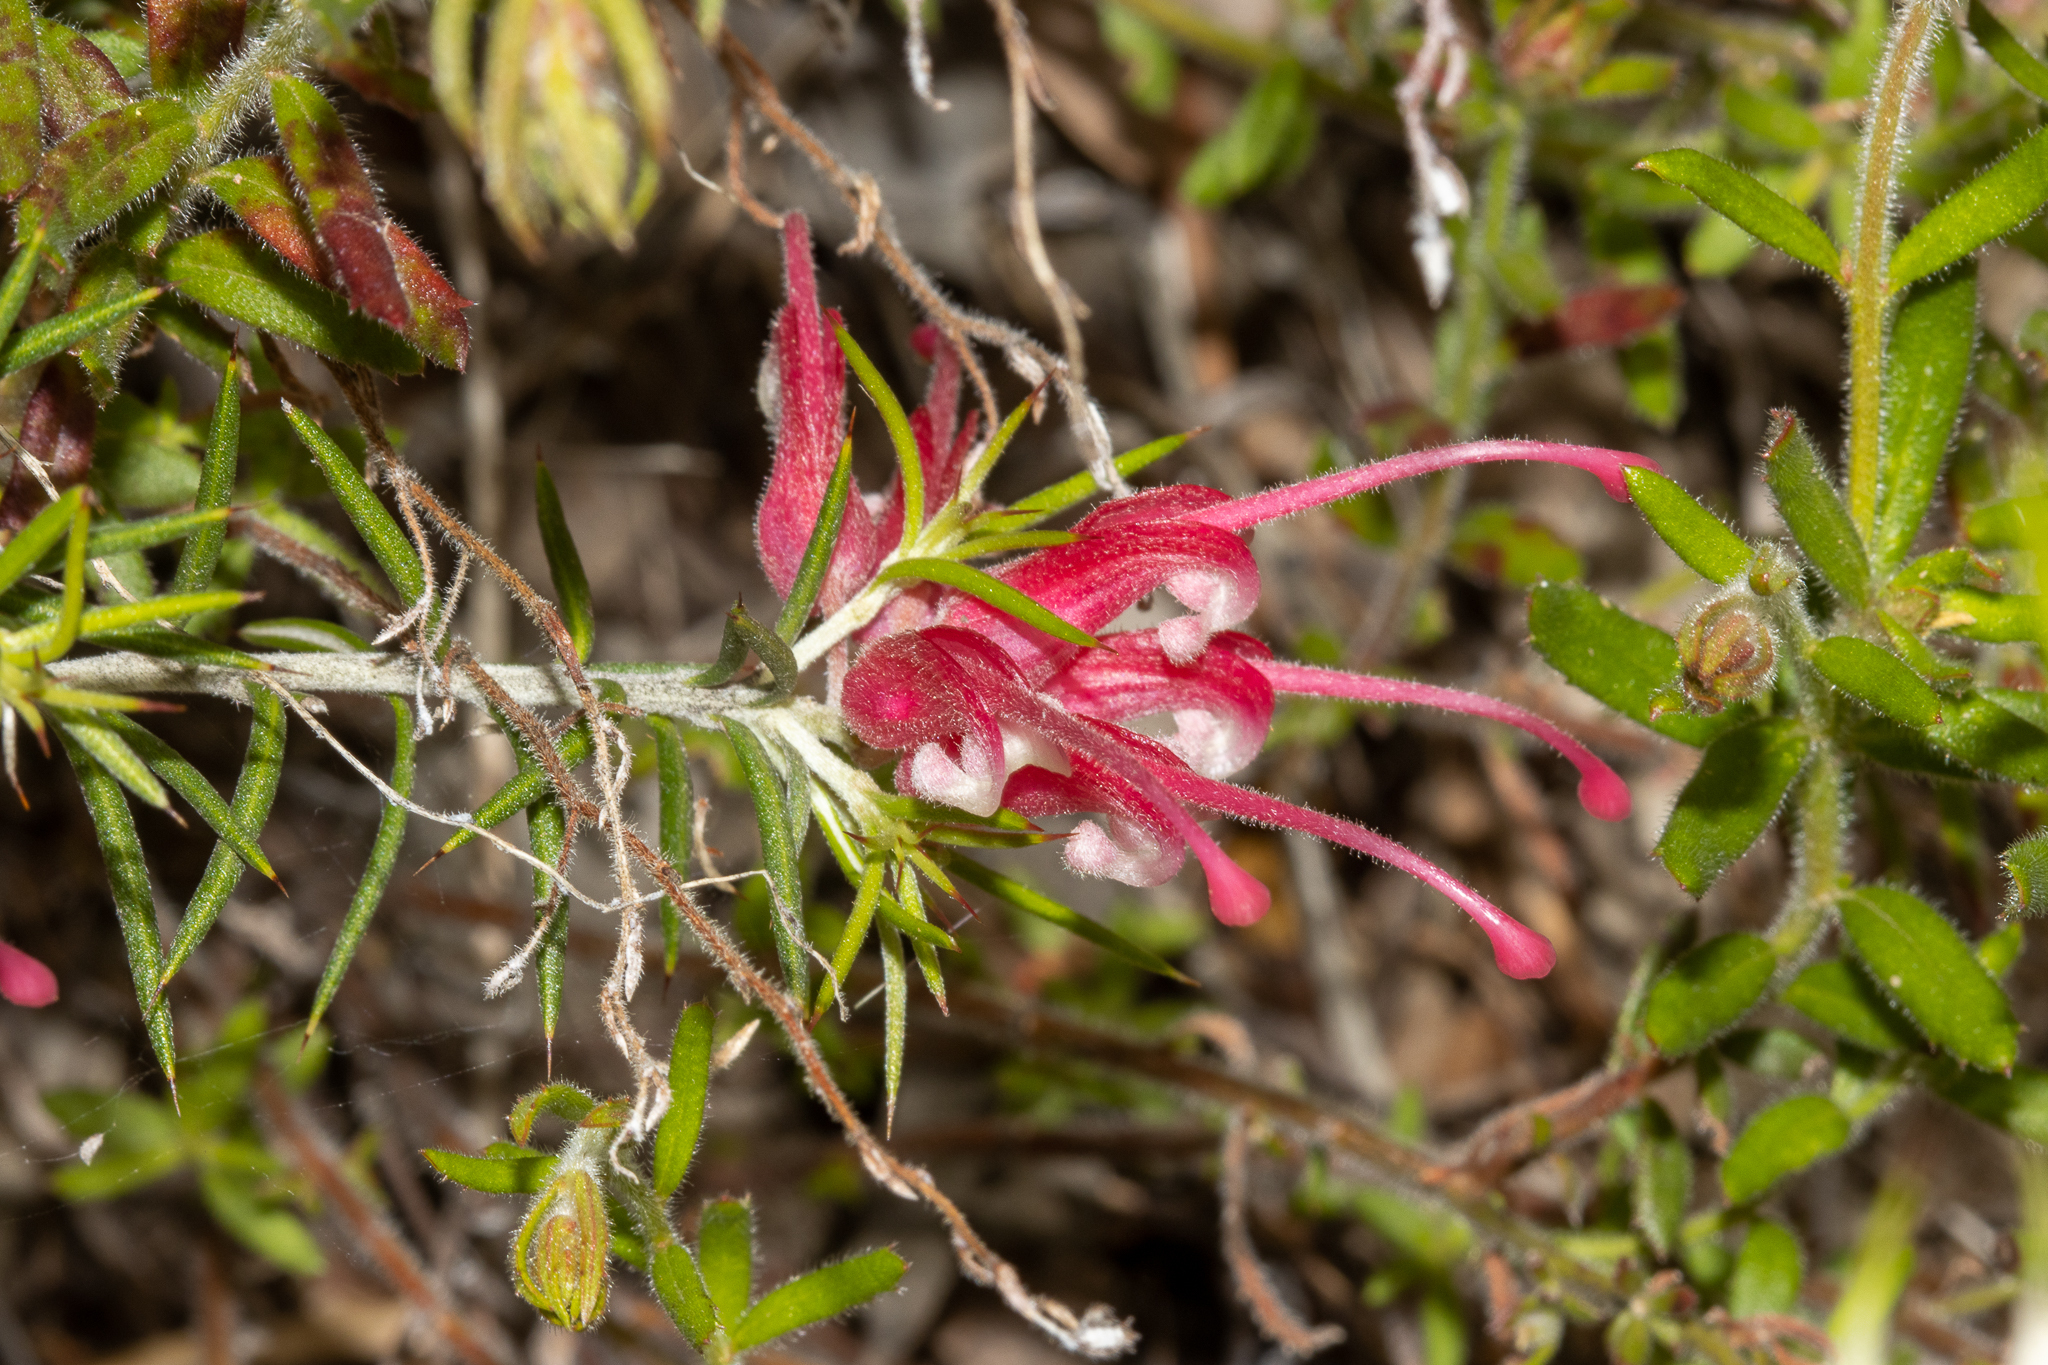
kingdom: Plantae
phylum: Tracheophyta
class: Magnoliopsida
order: Proteales
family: Proteaceae
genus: Grevillea
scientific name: Grevillea lavandulacea
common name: Lavender grevillea
